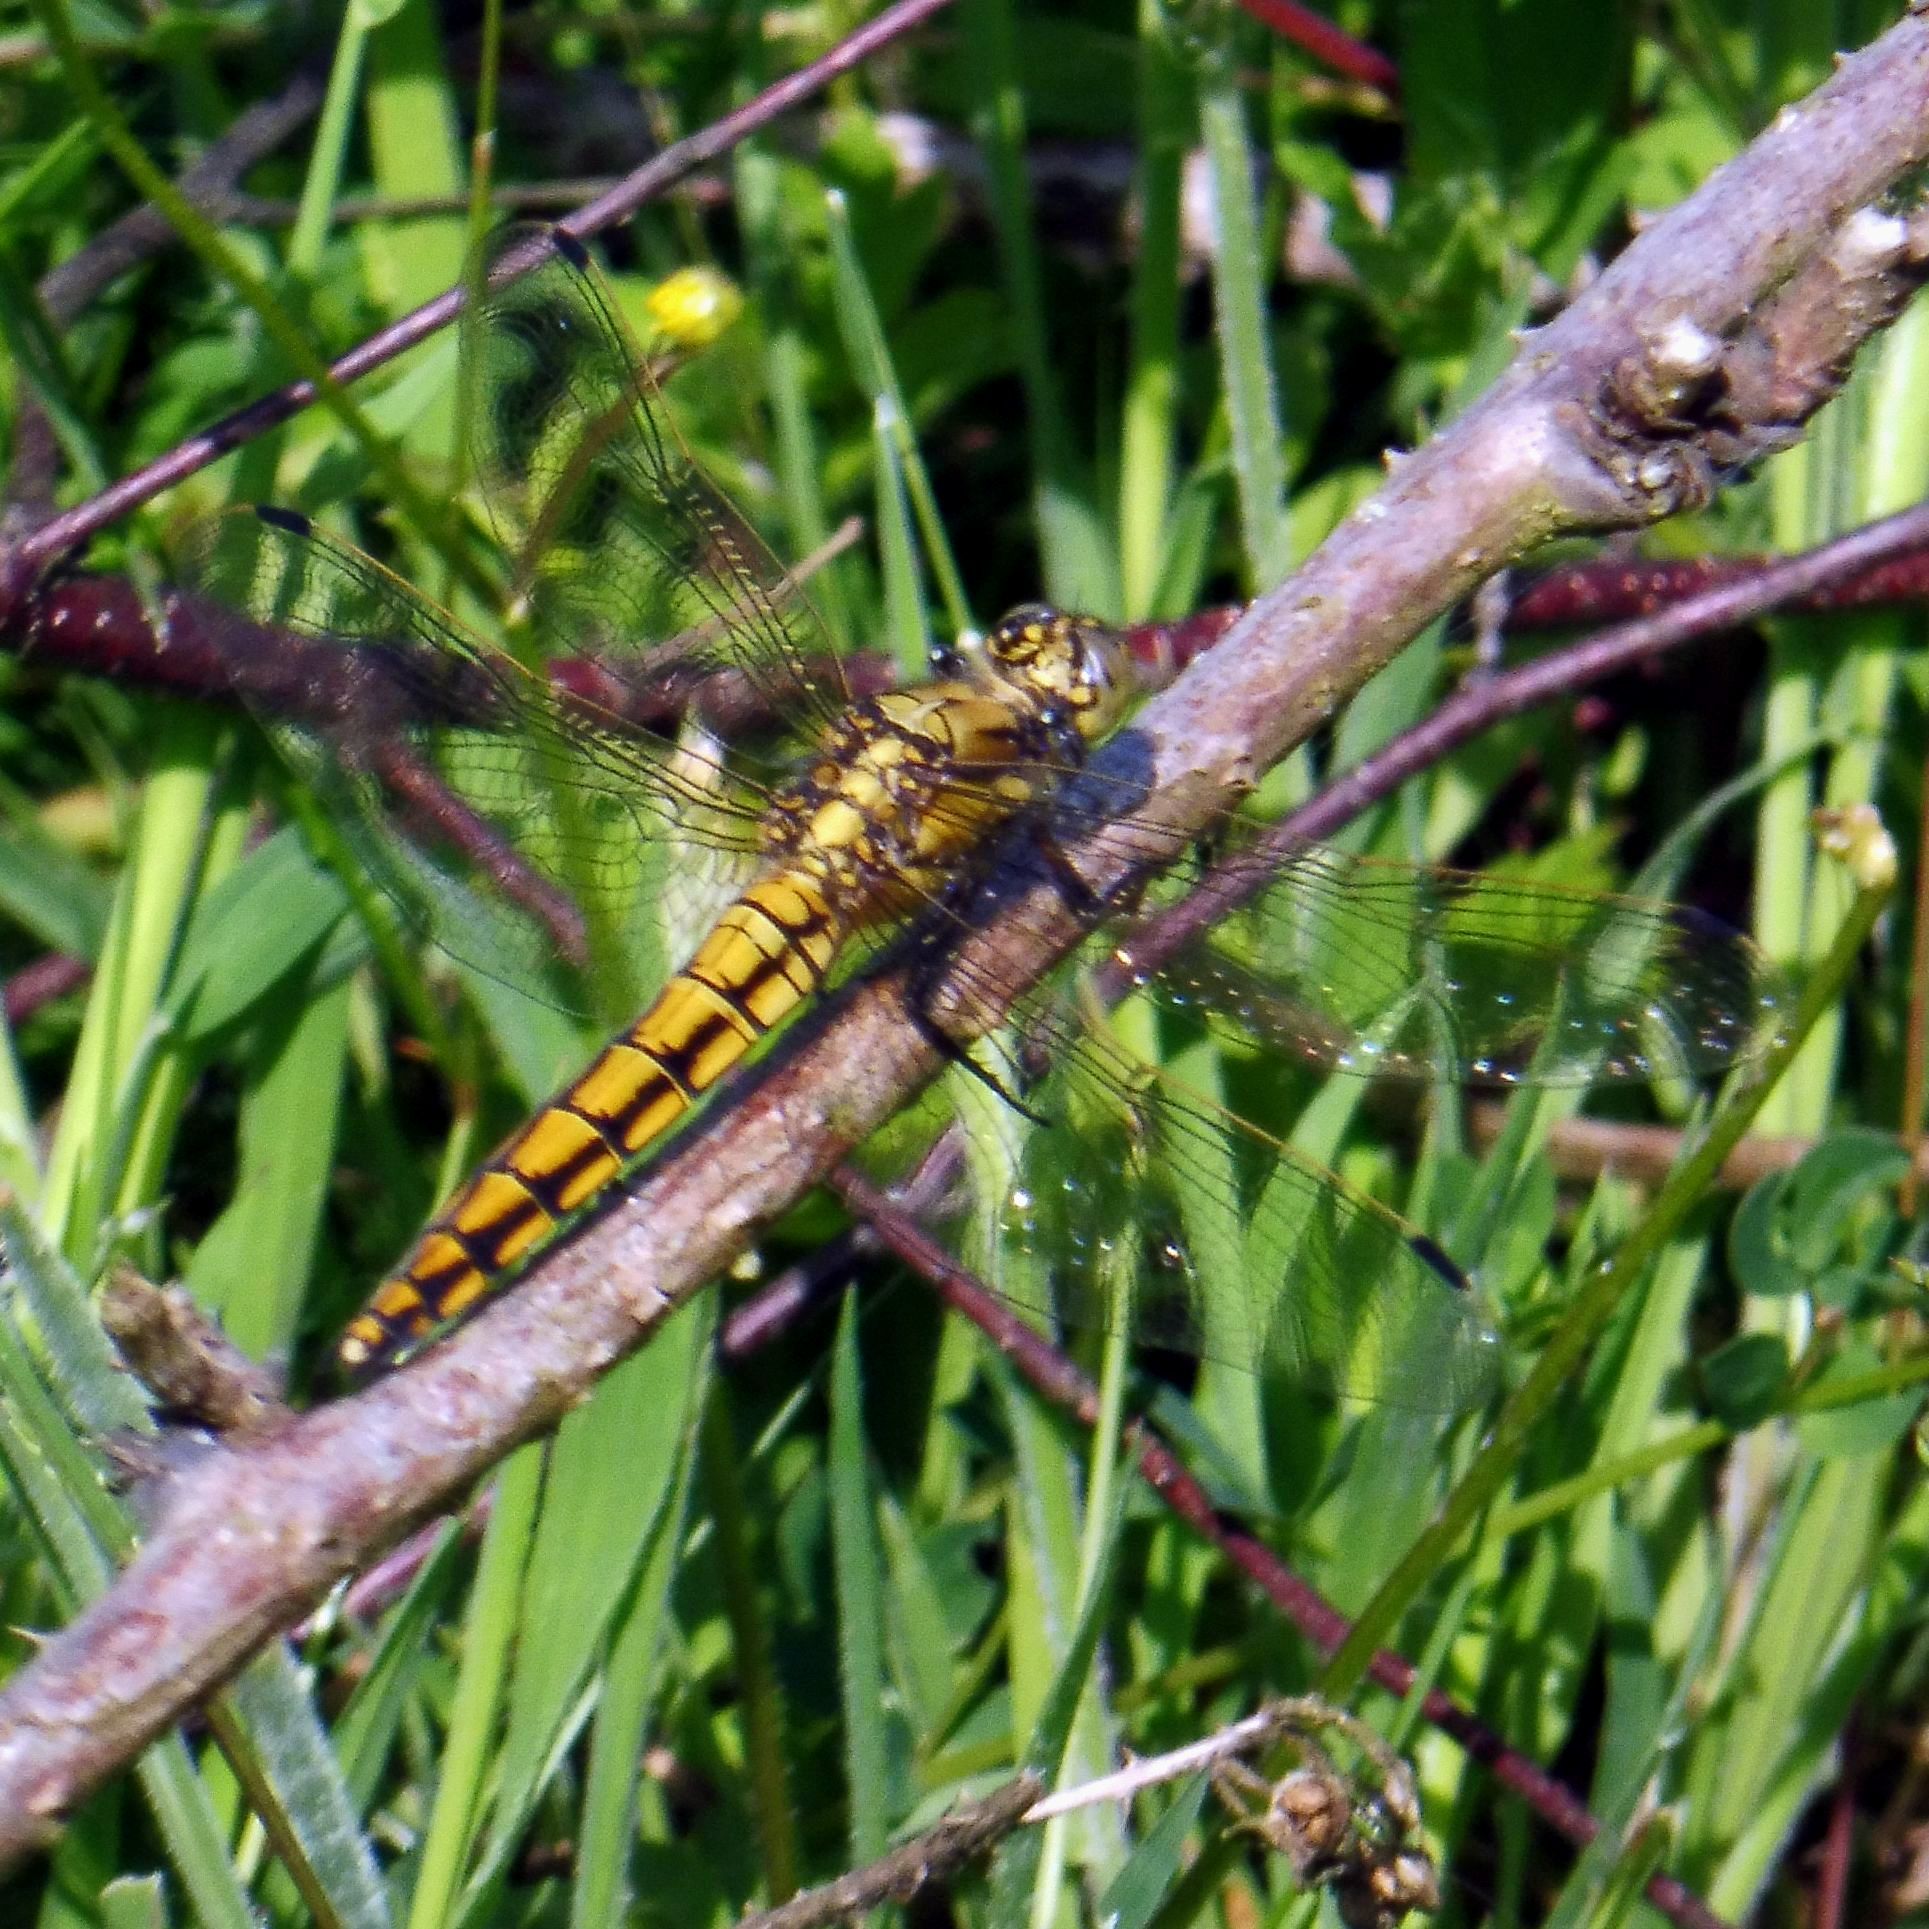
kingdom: Animalia
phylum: Arthropoda
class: Insecta
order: Odonata
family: Libellulidae
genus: Orthetrum
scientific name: Orthetrum cancellatum
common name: Black-tailed skimmer
